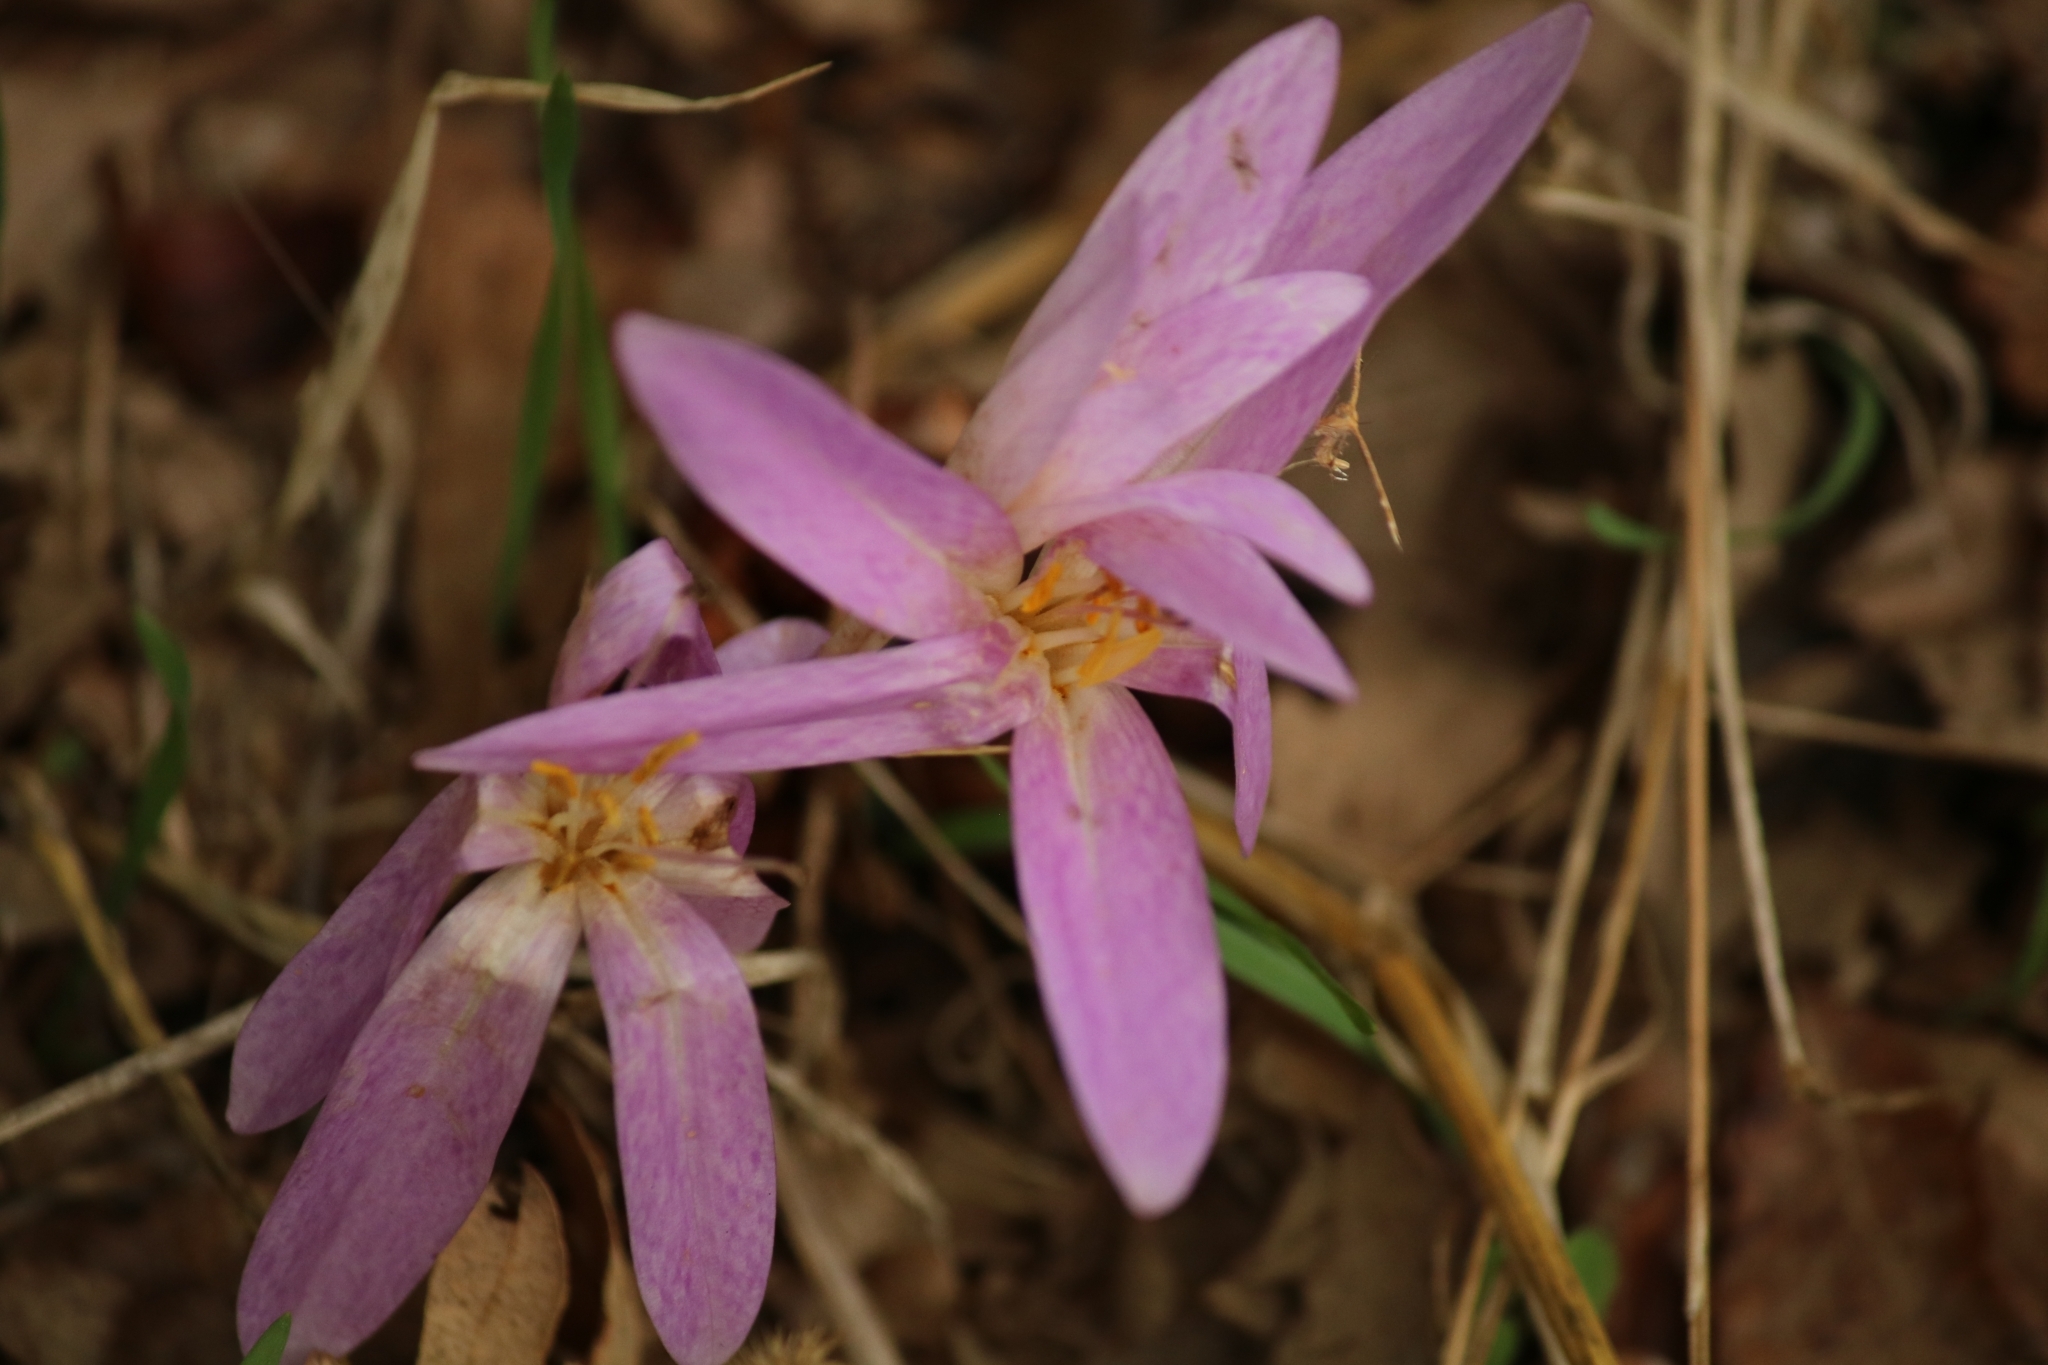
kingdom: Plantae
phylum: Tracheophyta
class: Liliopsida
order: Liliales
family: Colchicaceae
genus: Colchicum
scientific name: Colchicum lusitanum
